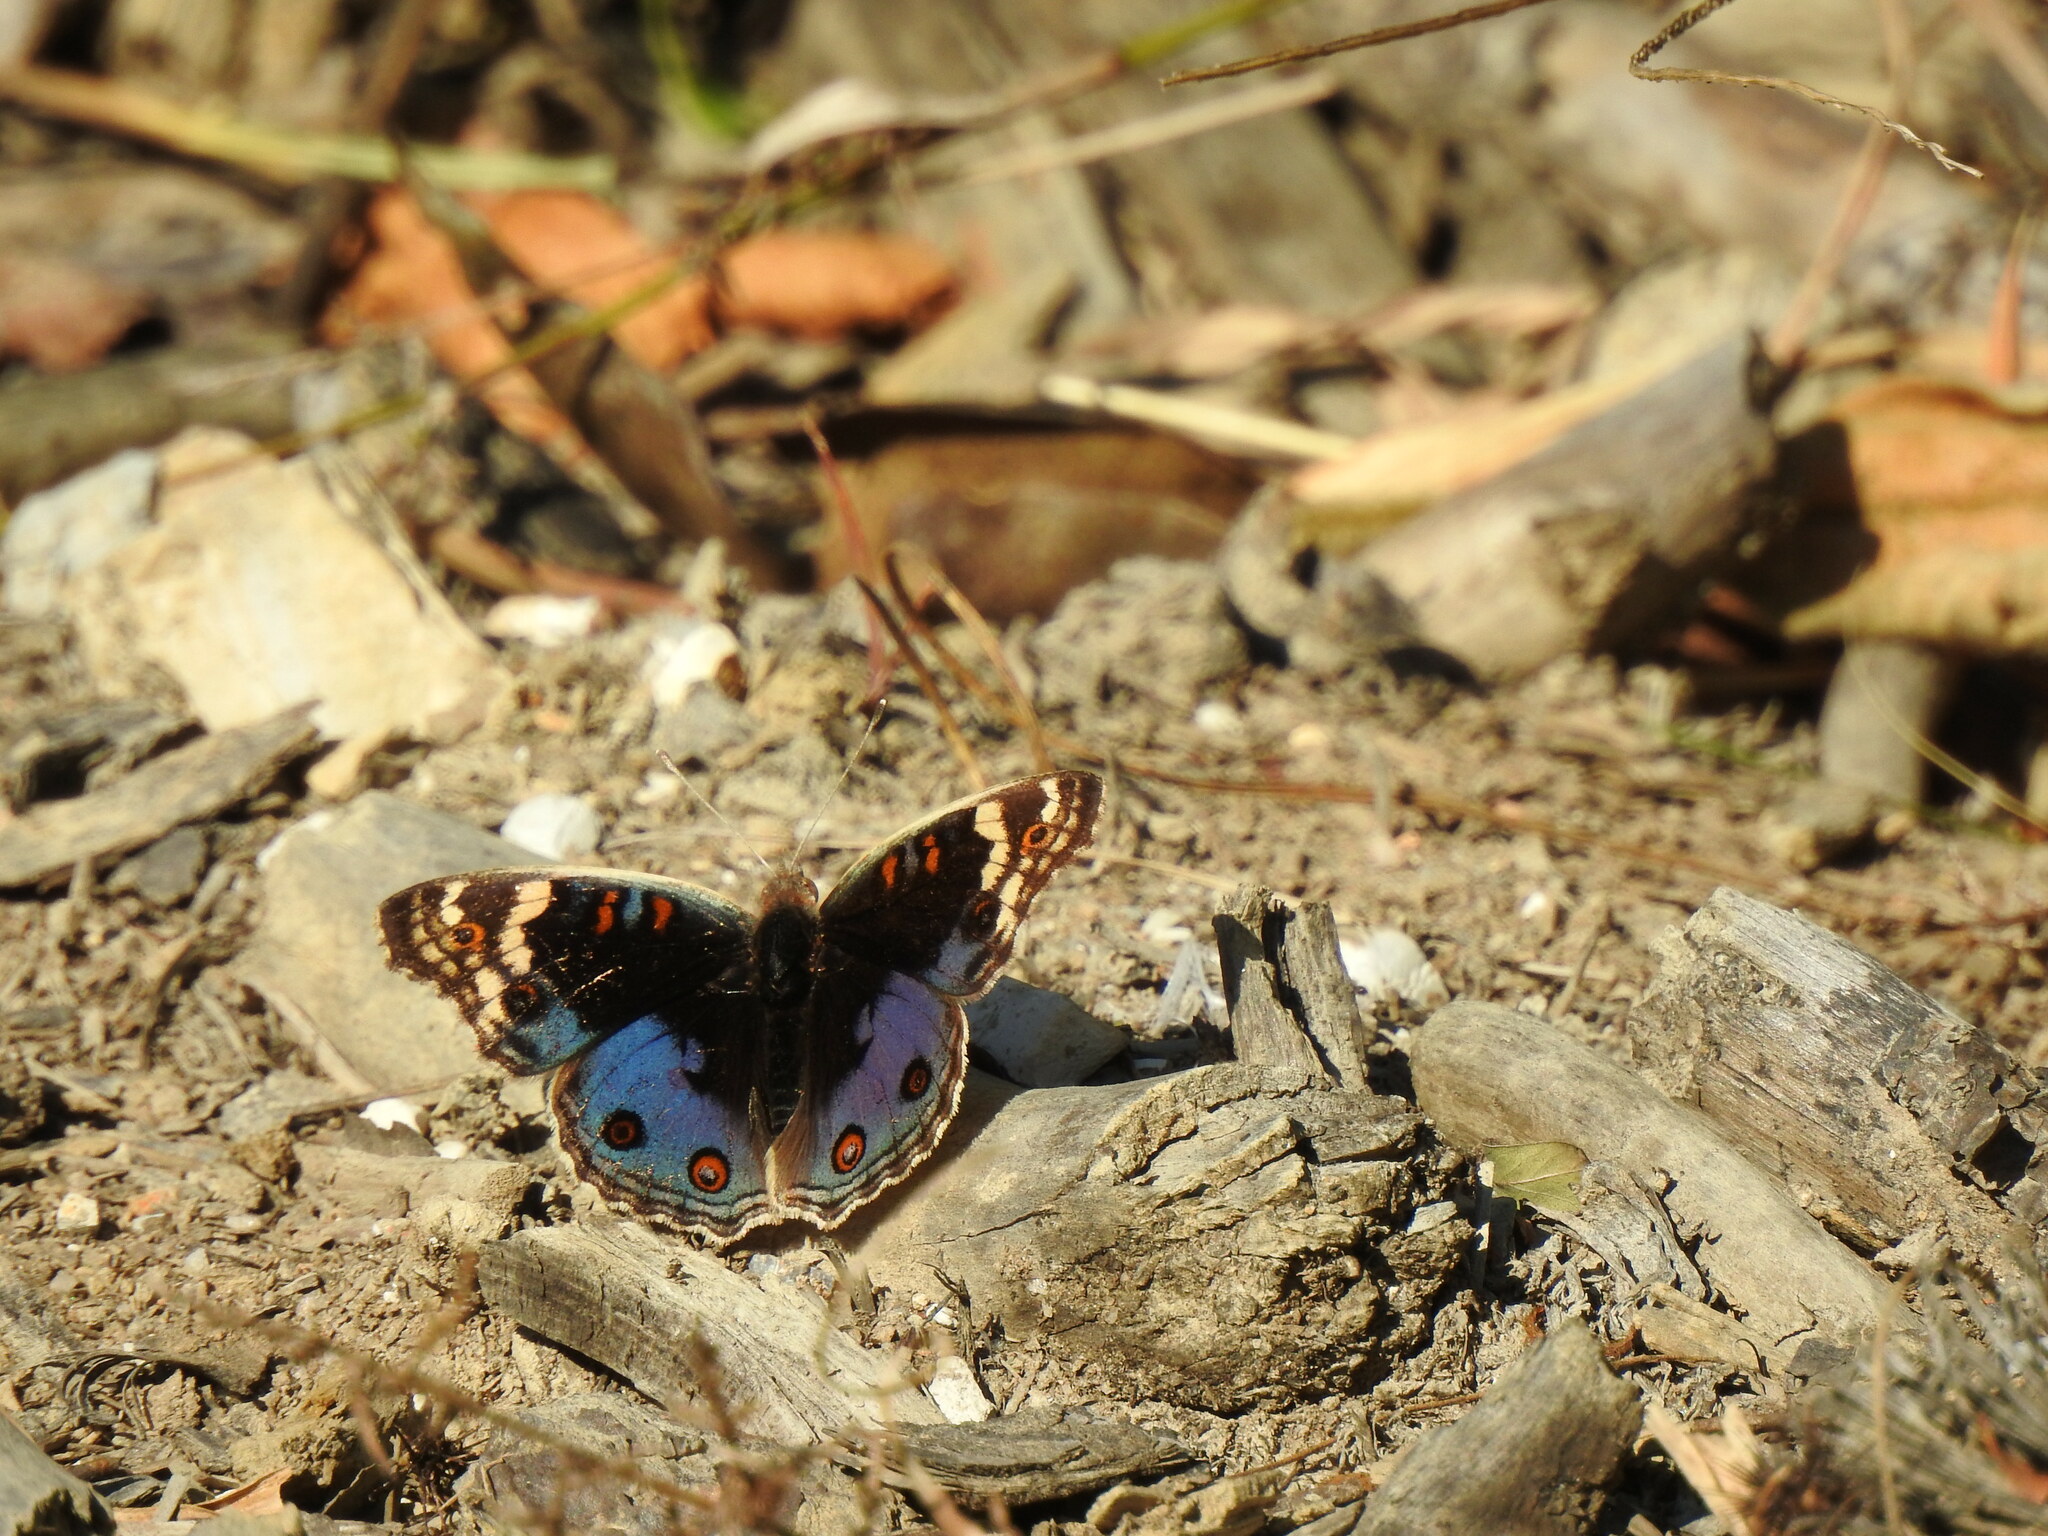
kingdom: Animalia
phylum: Arthropoda
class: Insecta
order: Lepidoptera
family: Nymphalidae
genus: Junonia
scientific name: Junonia orithya
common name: Blue pansy
